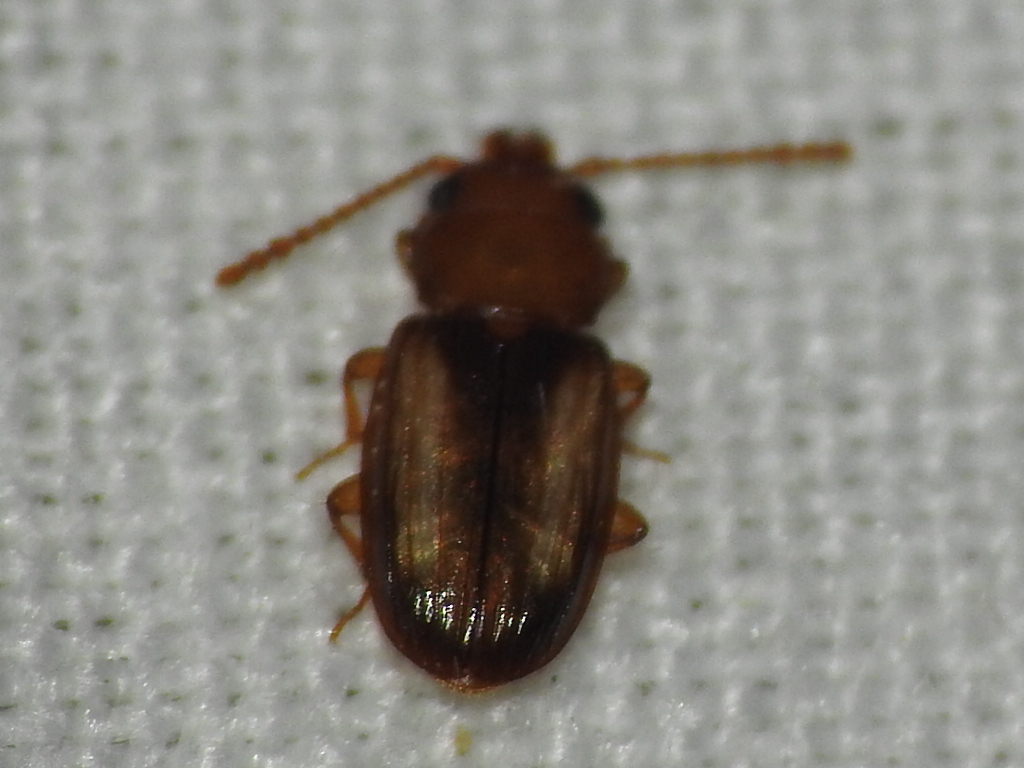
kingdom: Animalia
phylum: Arthropoda
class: Insecta
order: Coleoptera
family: Laemophloeidae
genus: Laemophloeus
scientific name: Laemophloeus terminalis
